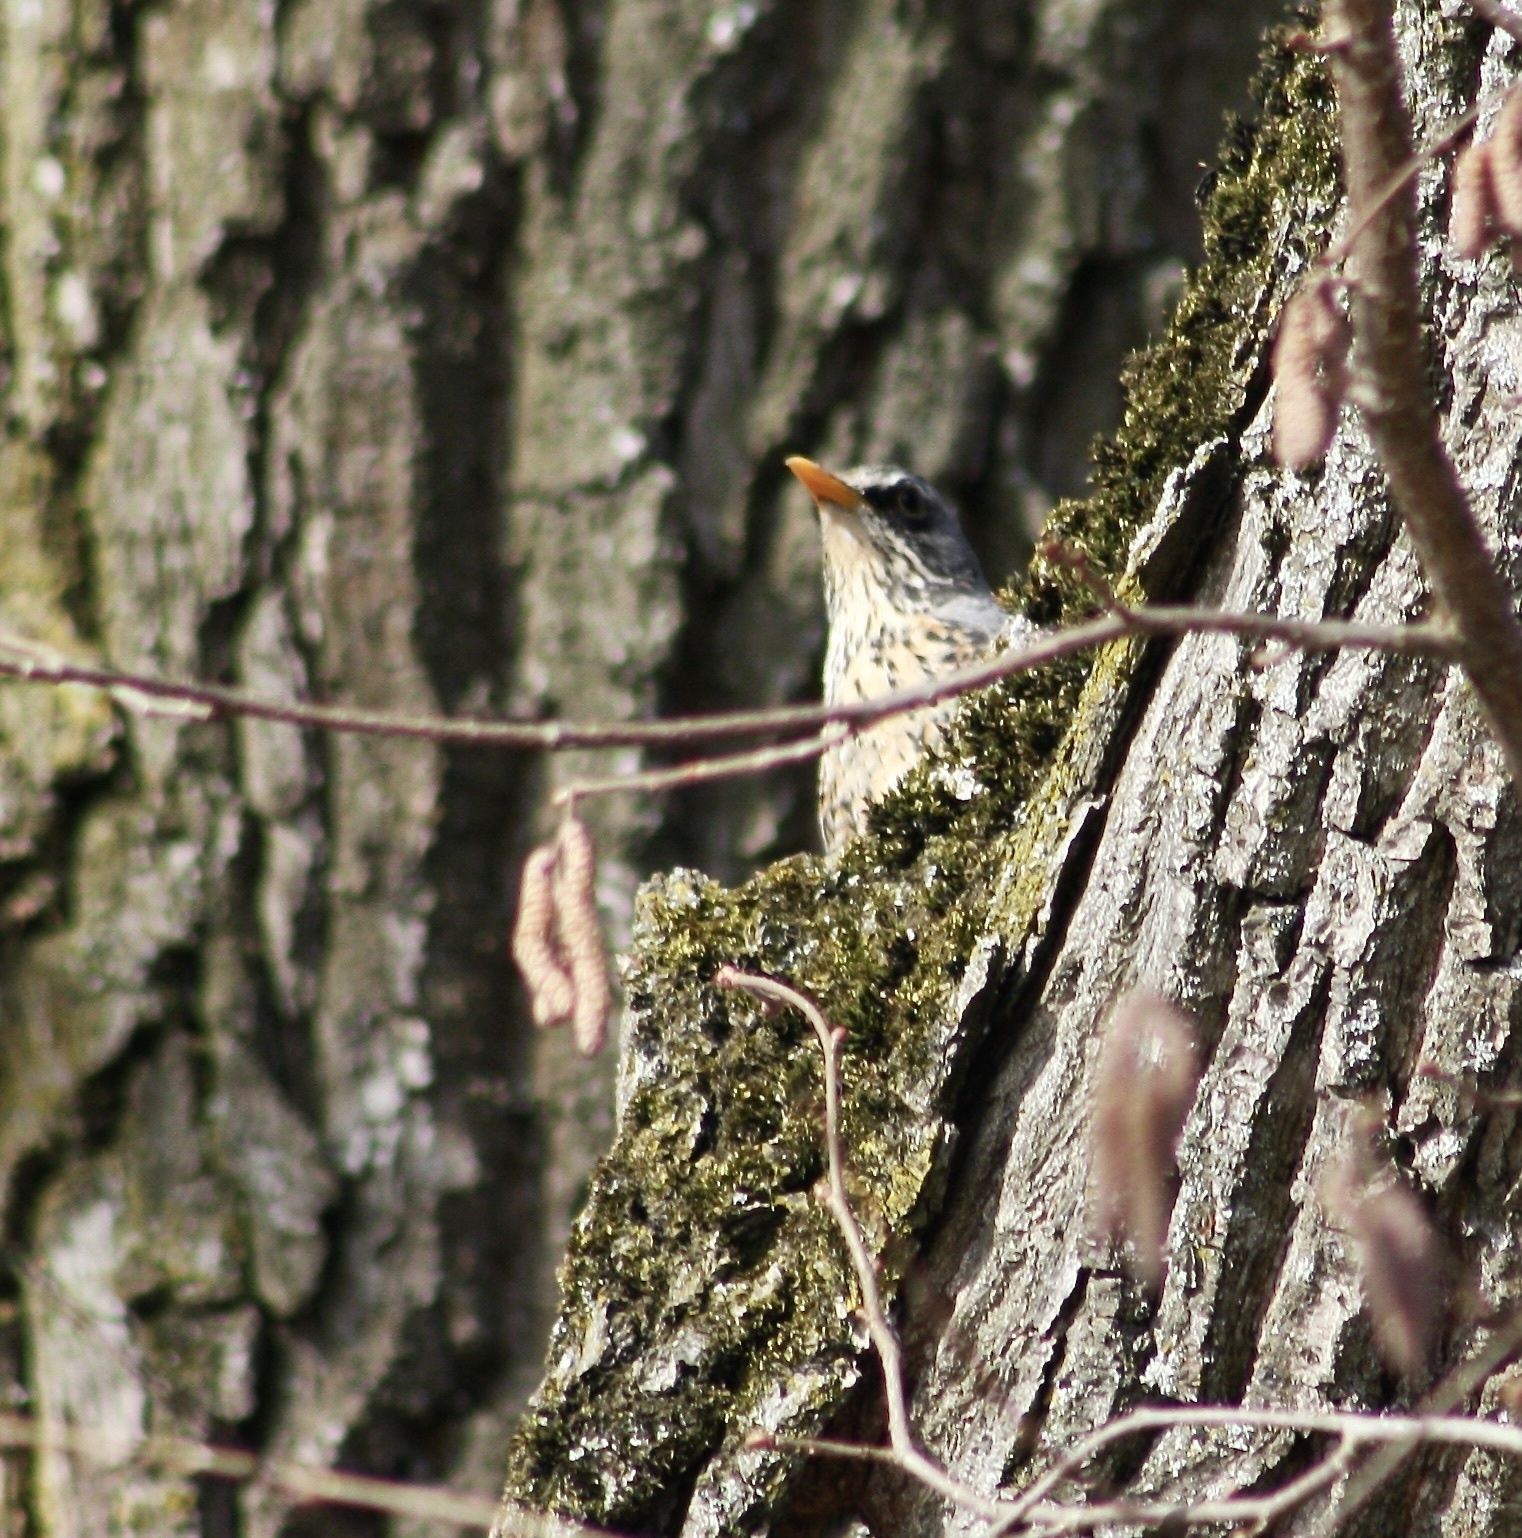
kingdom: Animalia
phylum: Chordata
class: Aves
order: Passeriformes
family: Turdidae
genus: Turdus
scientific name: Turdus pilaris
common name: Fieldfare
